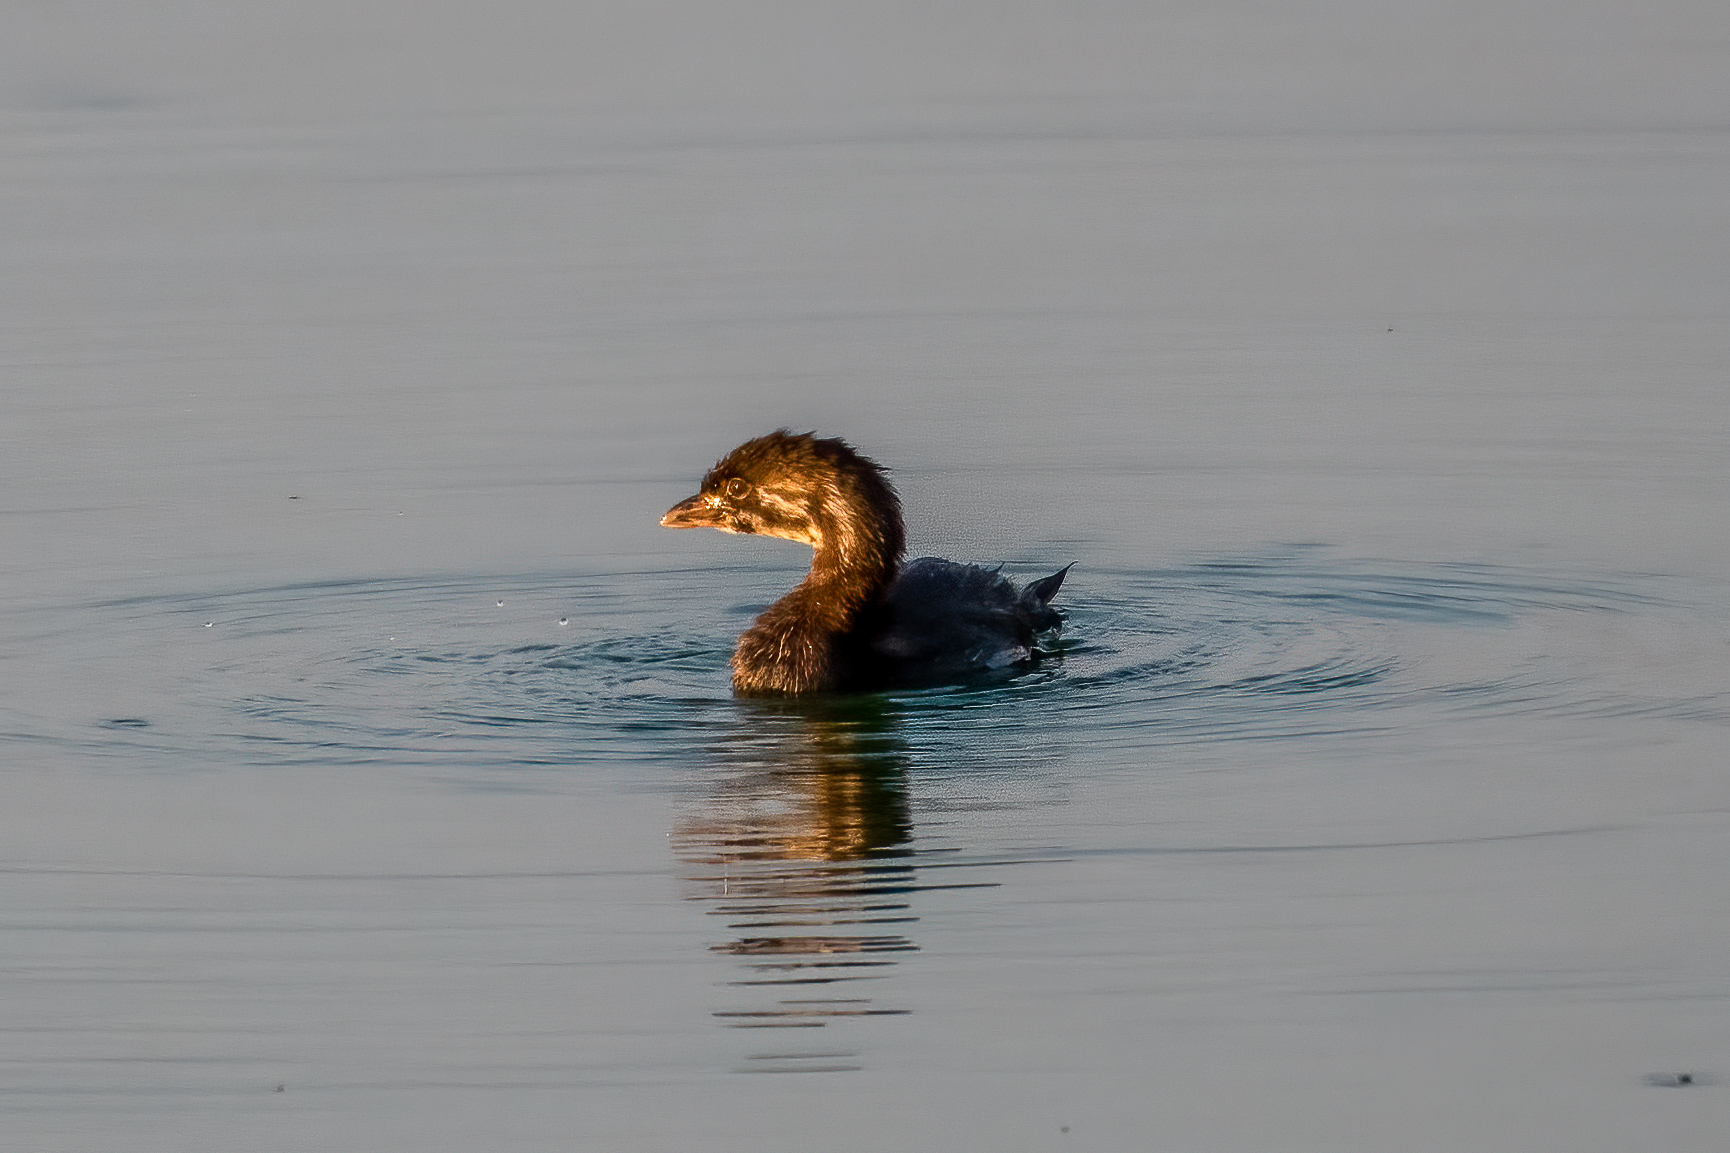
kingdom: Animalia
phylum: Chordata
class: Aves
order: Podicipediformes
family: Podicipedidae
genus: Podilymbus
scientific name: Podilymbus podiceps
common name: Pied-billed grebe
